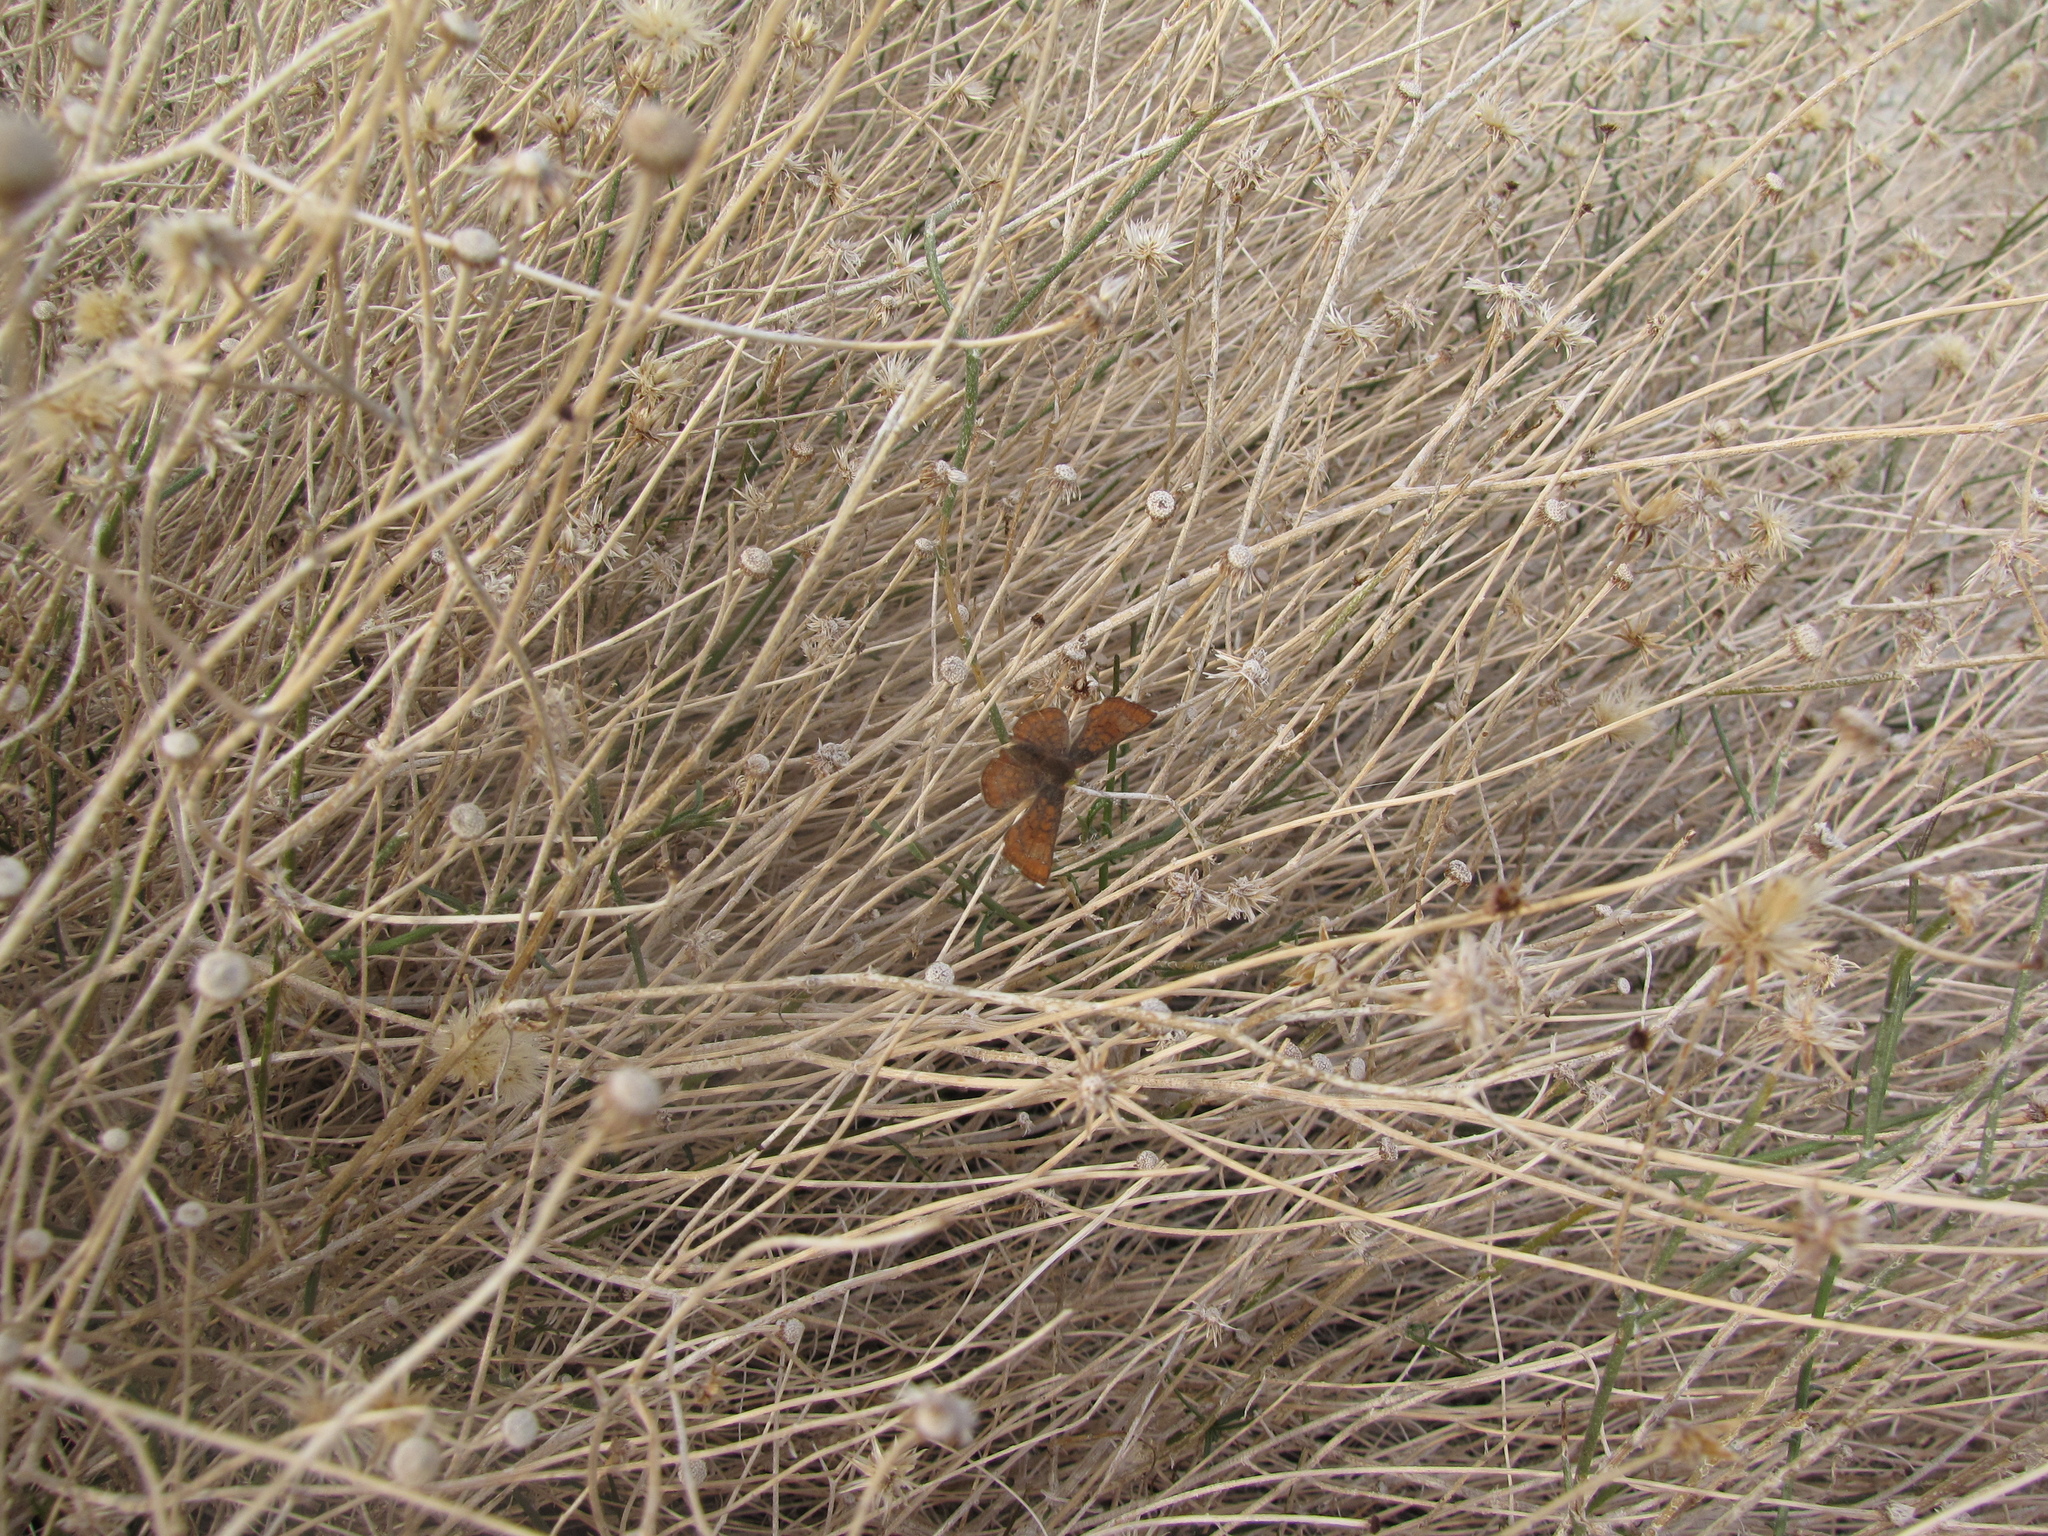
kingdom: Animalia
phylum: Arthropoda
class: Insecta
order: Lepidoptera
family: Lycaenidae
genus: Emesis
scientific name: Emesis wrighti
